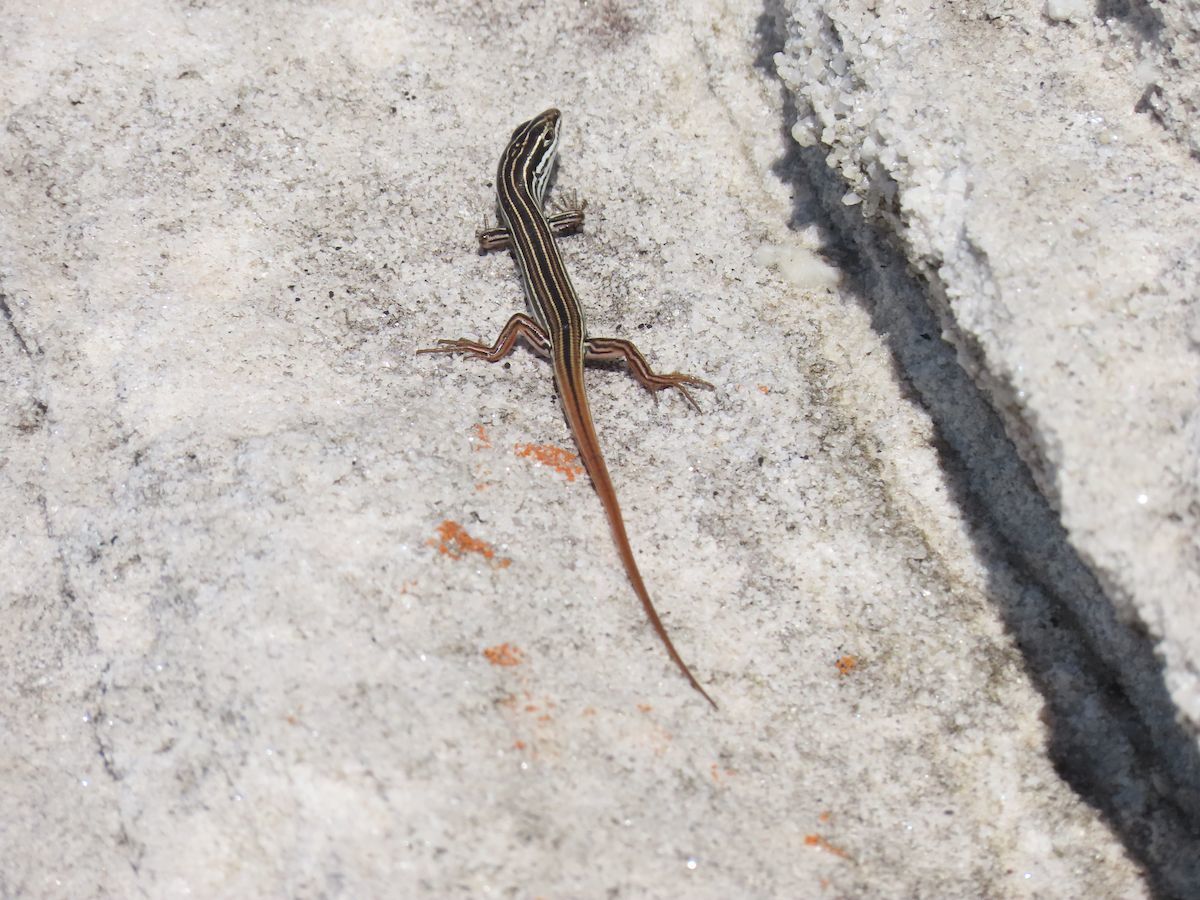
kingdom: Animalia
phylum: Chordata
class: Squamata
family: Scincidae
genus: Ctenotus
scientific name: Ctenotus taeniolatus
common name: Copper-tailed skink
